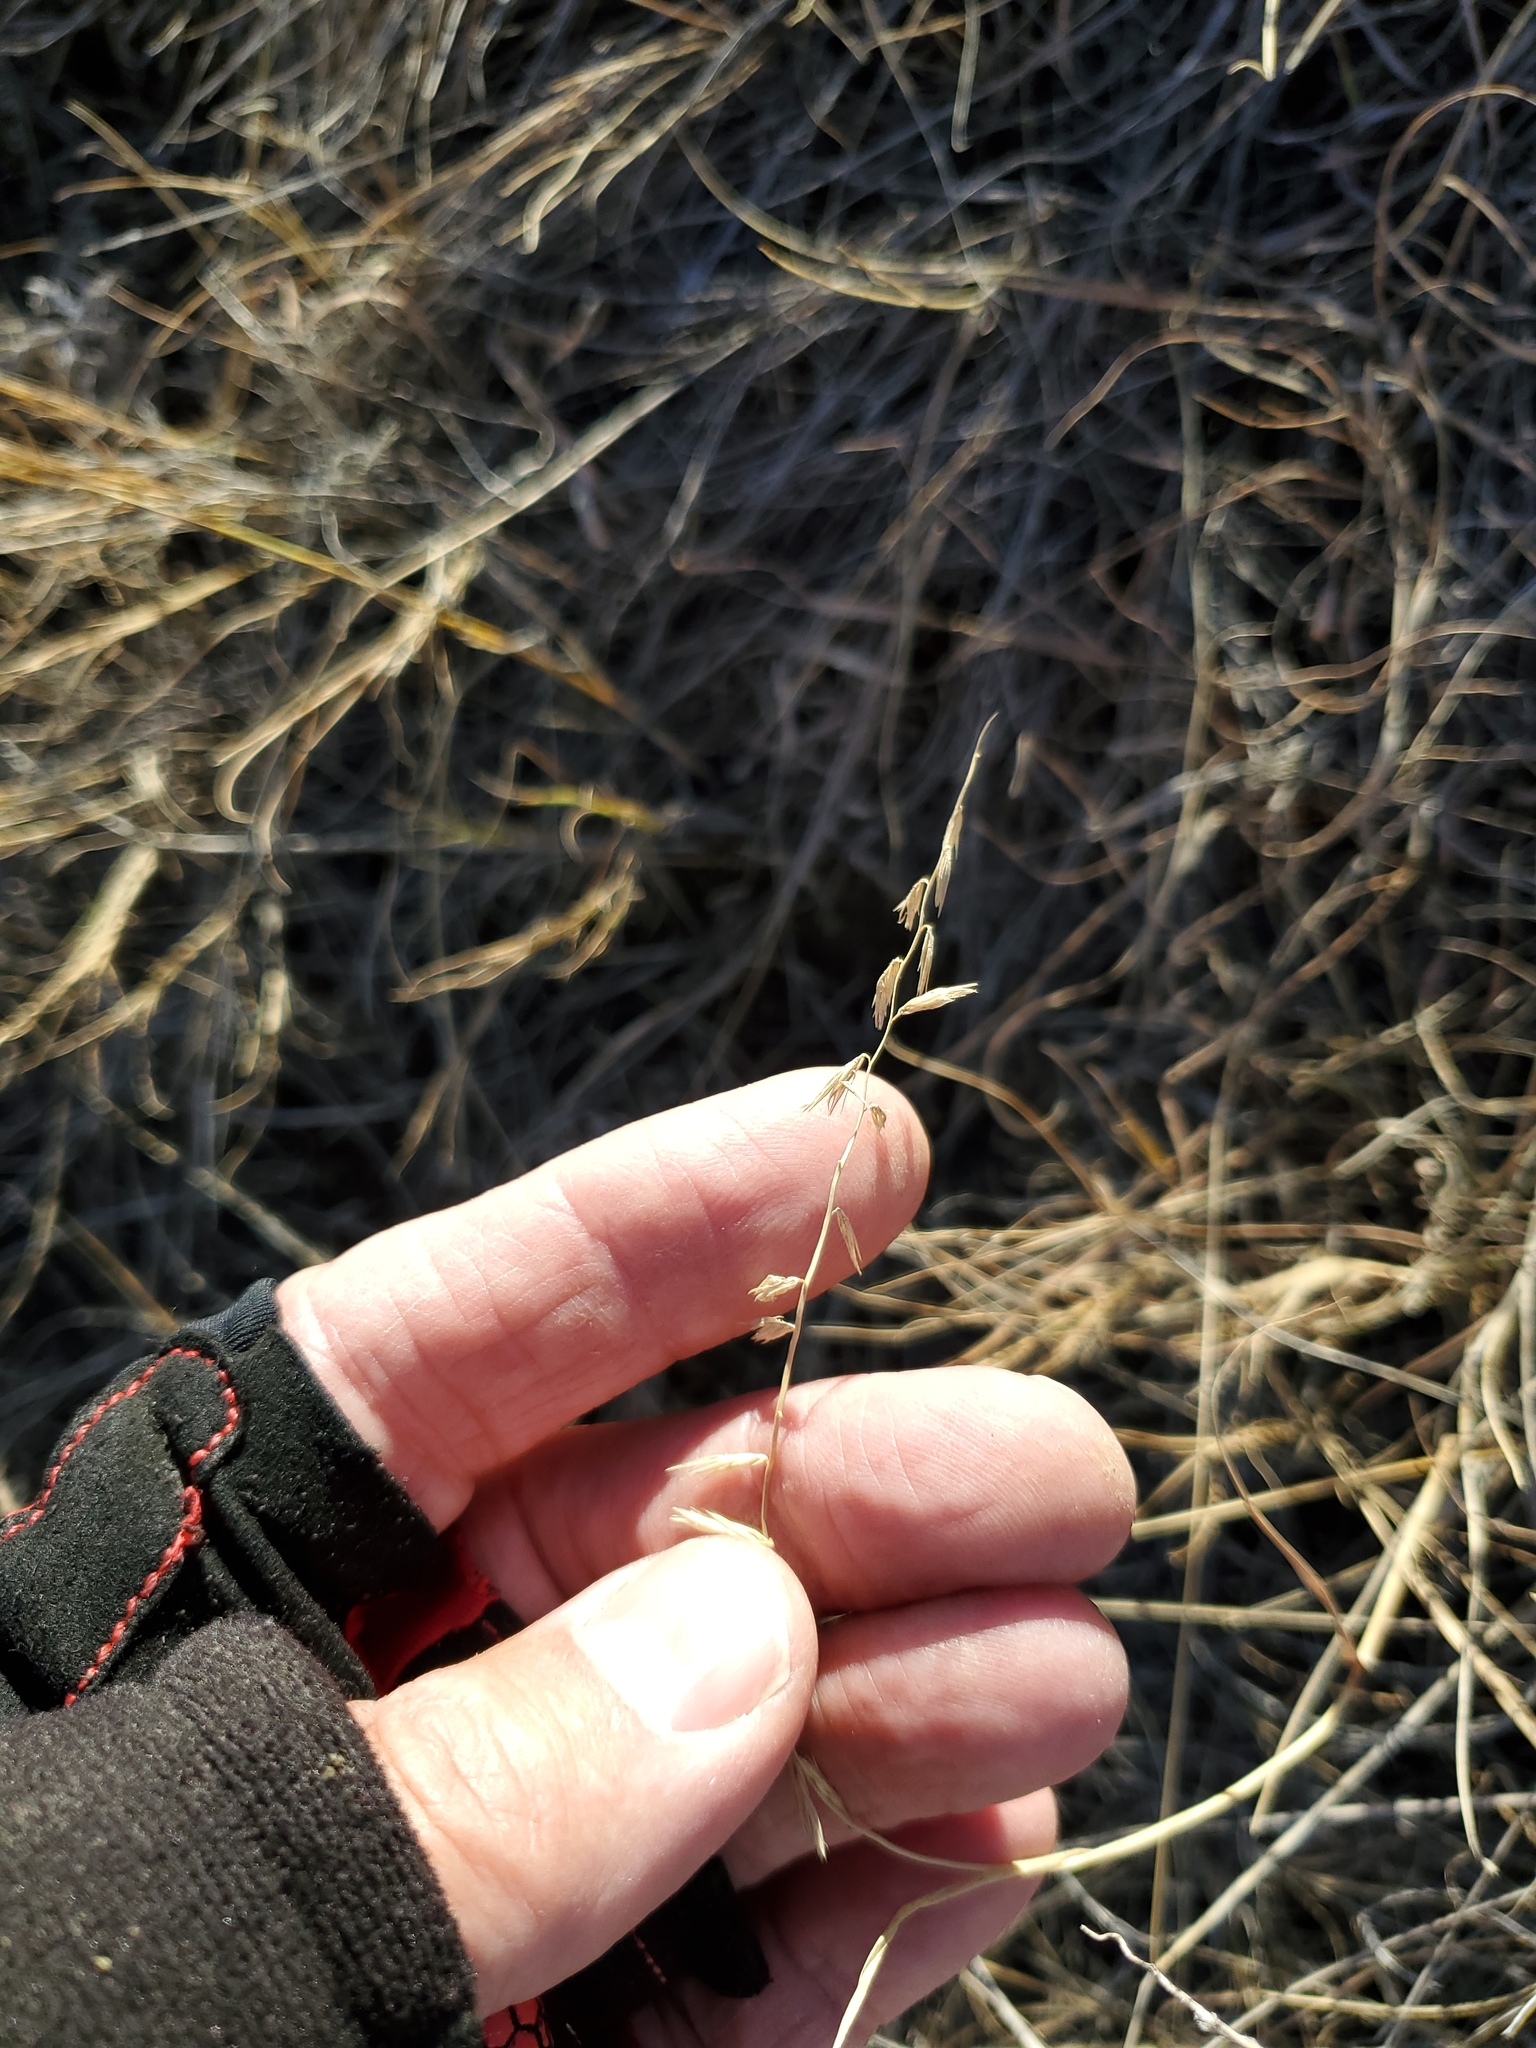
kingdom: Plantae
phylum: Tracheophyta
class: Liliopsida
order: Poales
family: Poaceae
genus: Bouteloua
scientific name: Bouteloua curtipendula
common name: Side-oats grama
